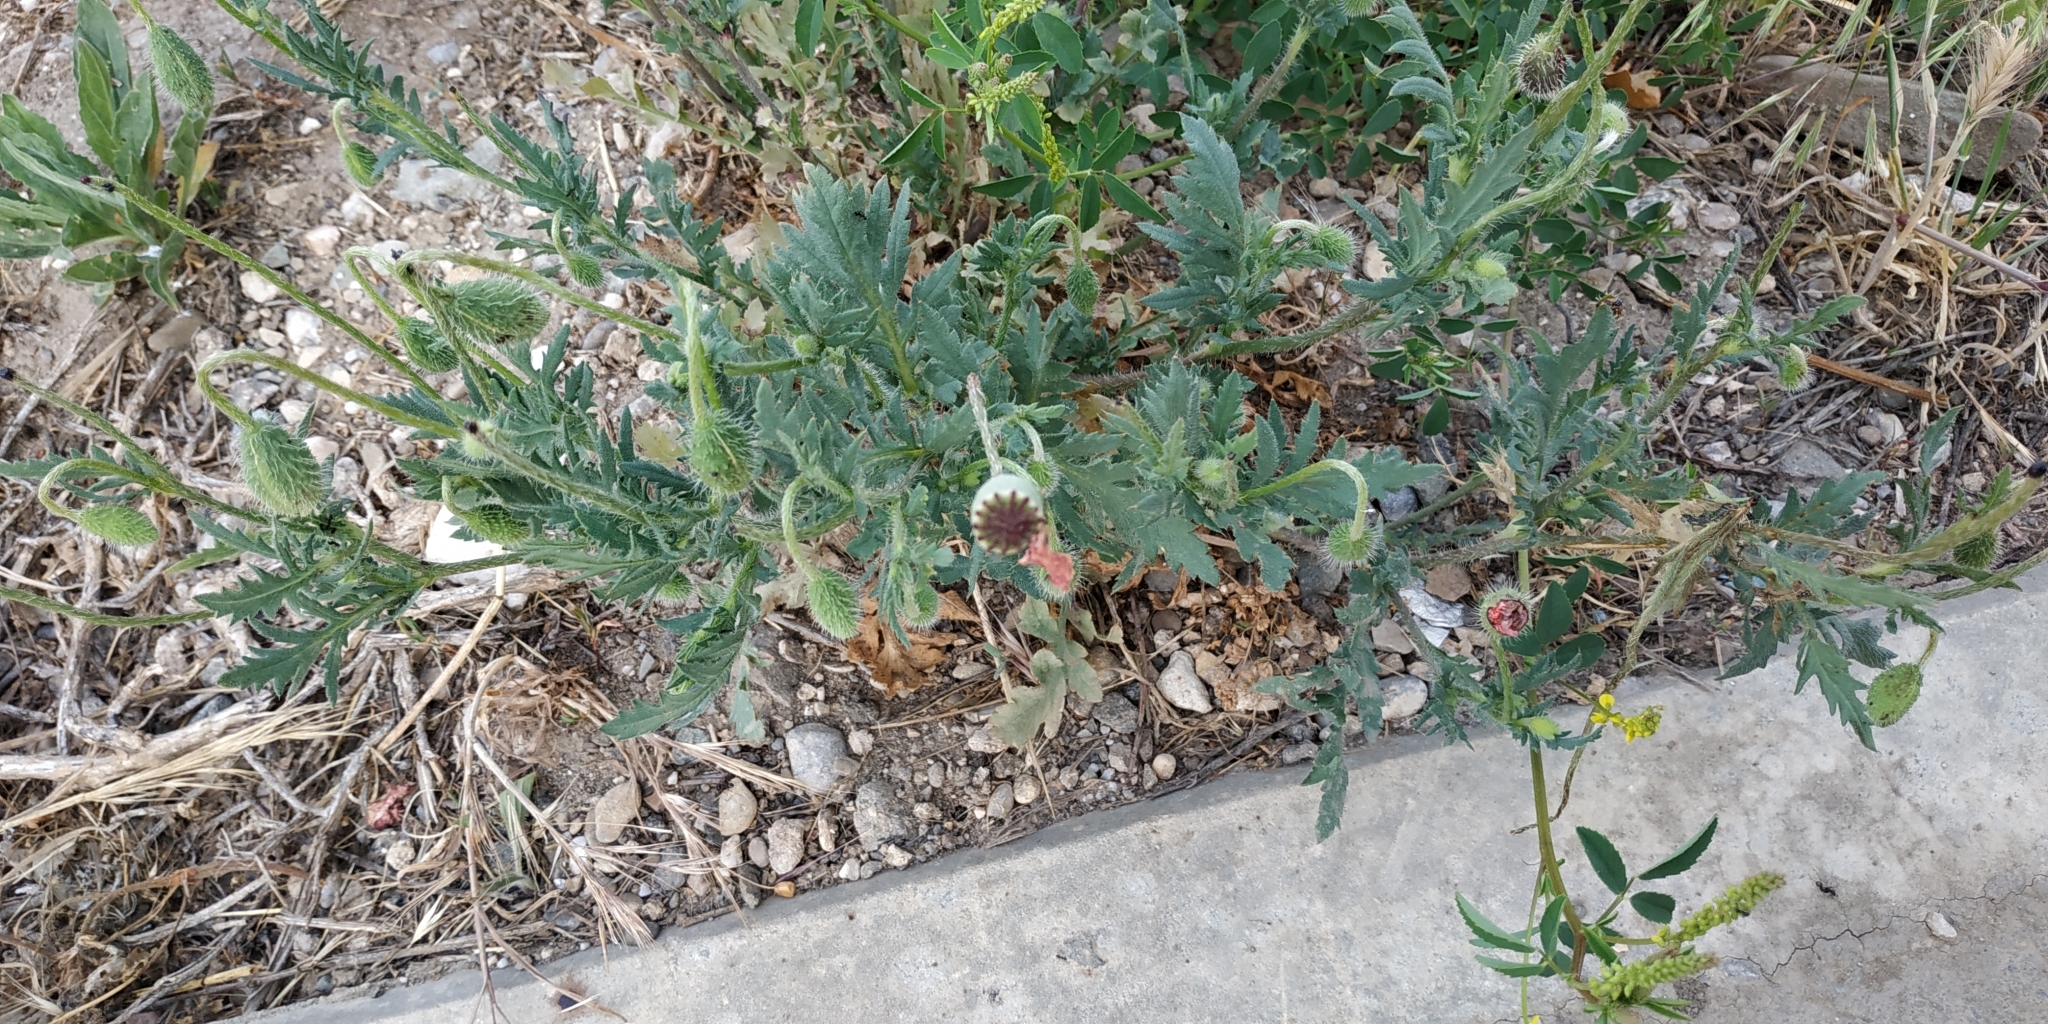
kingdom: Plantae
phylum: Tracheophyta
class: Magnoliopsida
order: Ranunculales
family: Papaveraceae
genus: Papaver
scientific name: Papaver rhoeas
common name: Corn poppy
